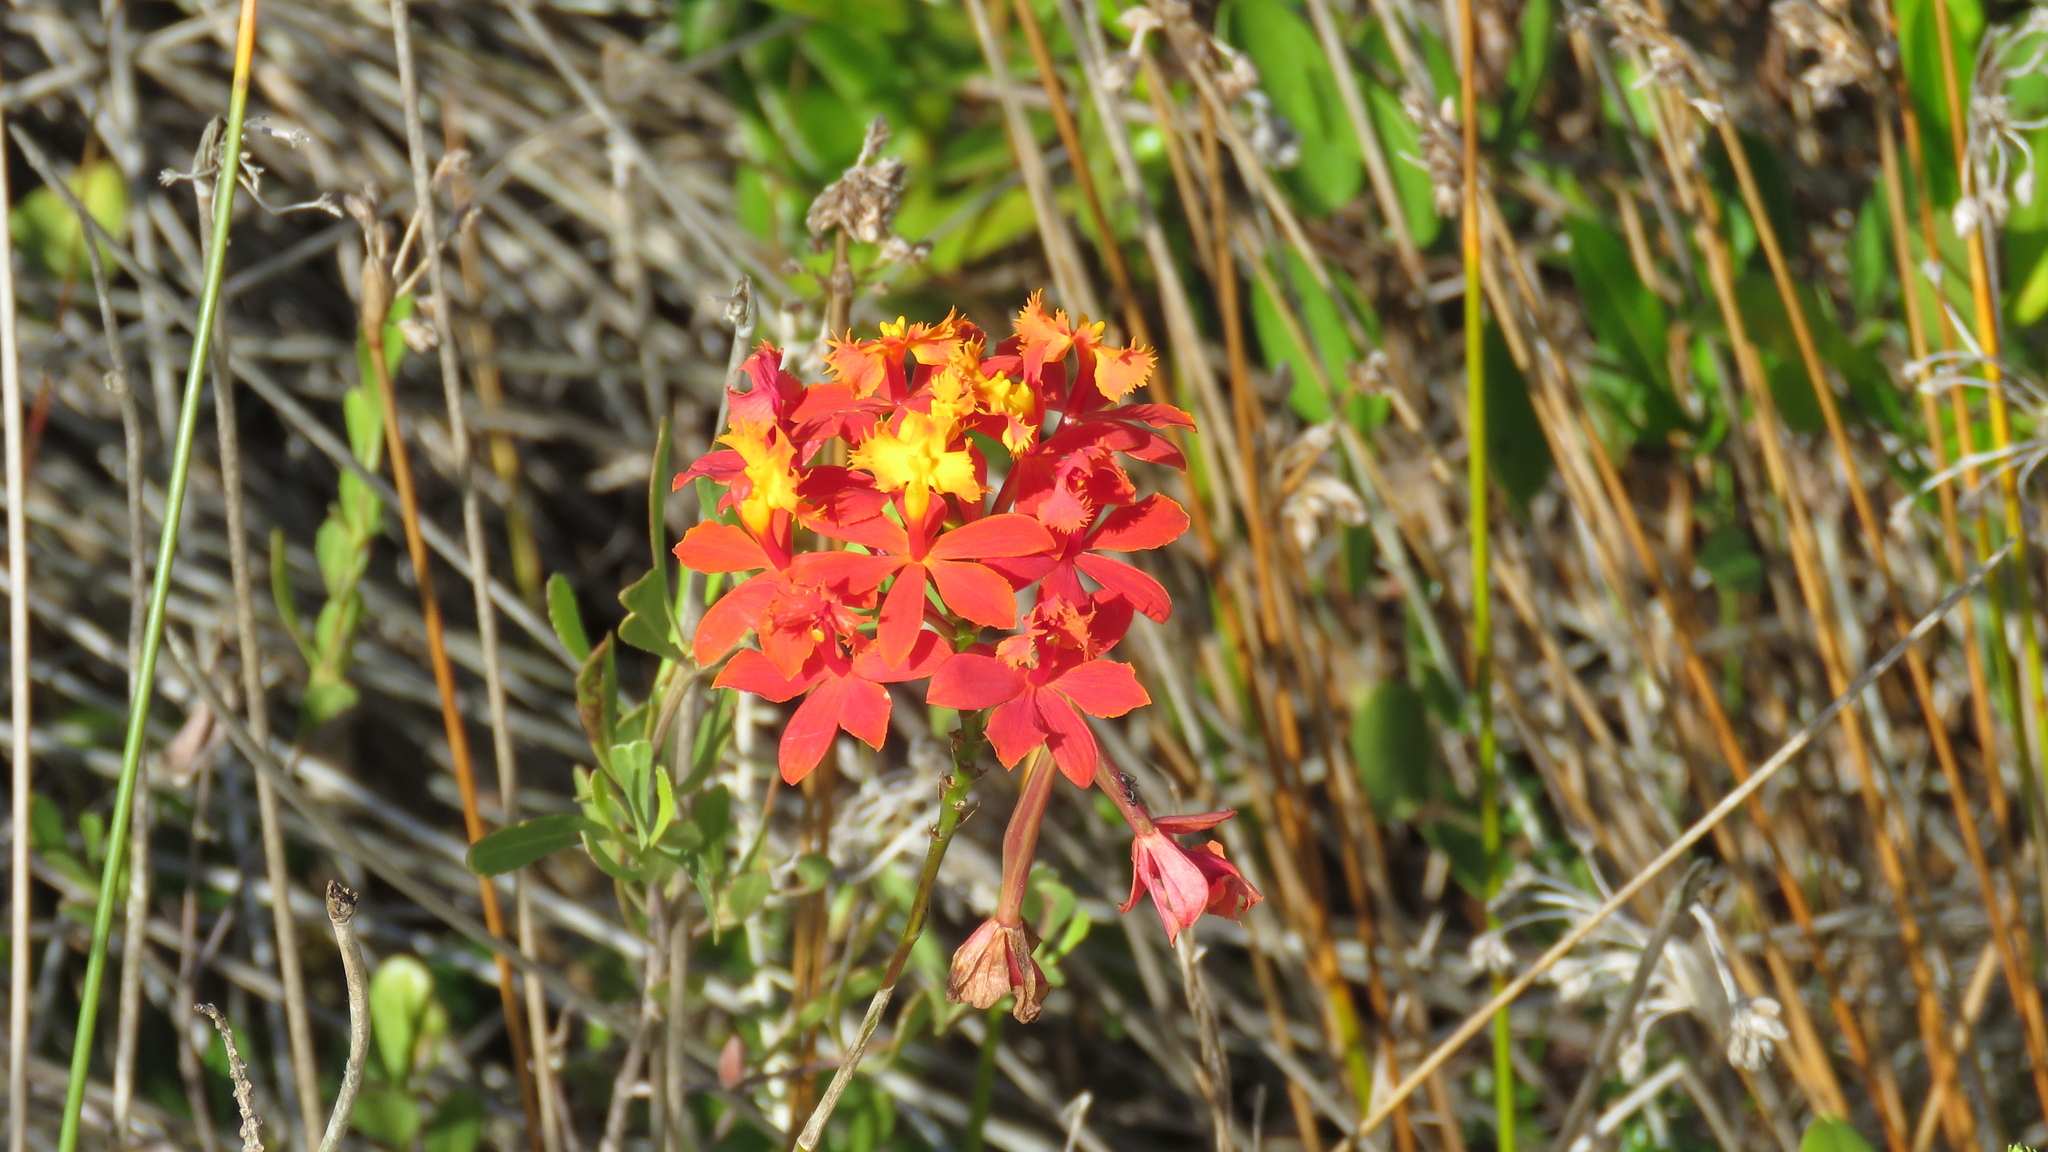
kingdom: Plantae
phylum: Tracheophyta
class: Liliopsida
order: Asparagales
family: Orchidaceae
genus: Epidendrum
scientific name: Epidendrum fulgens
